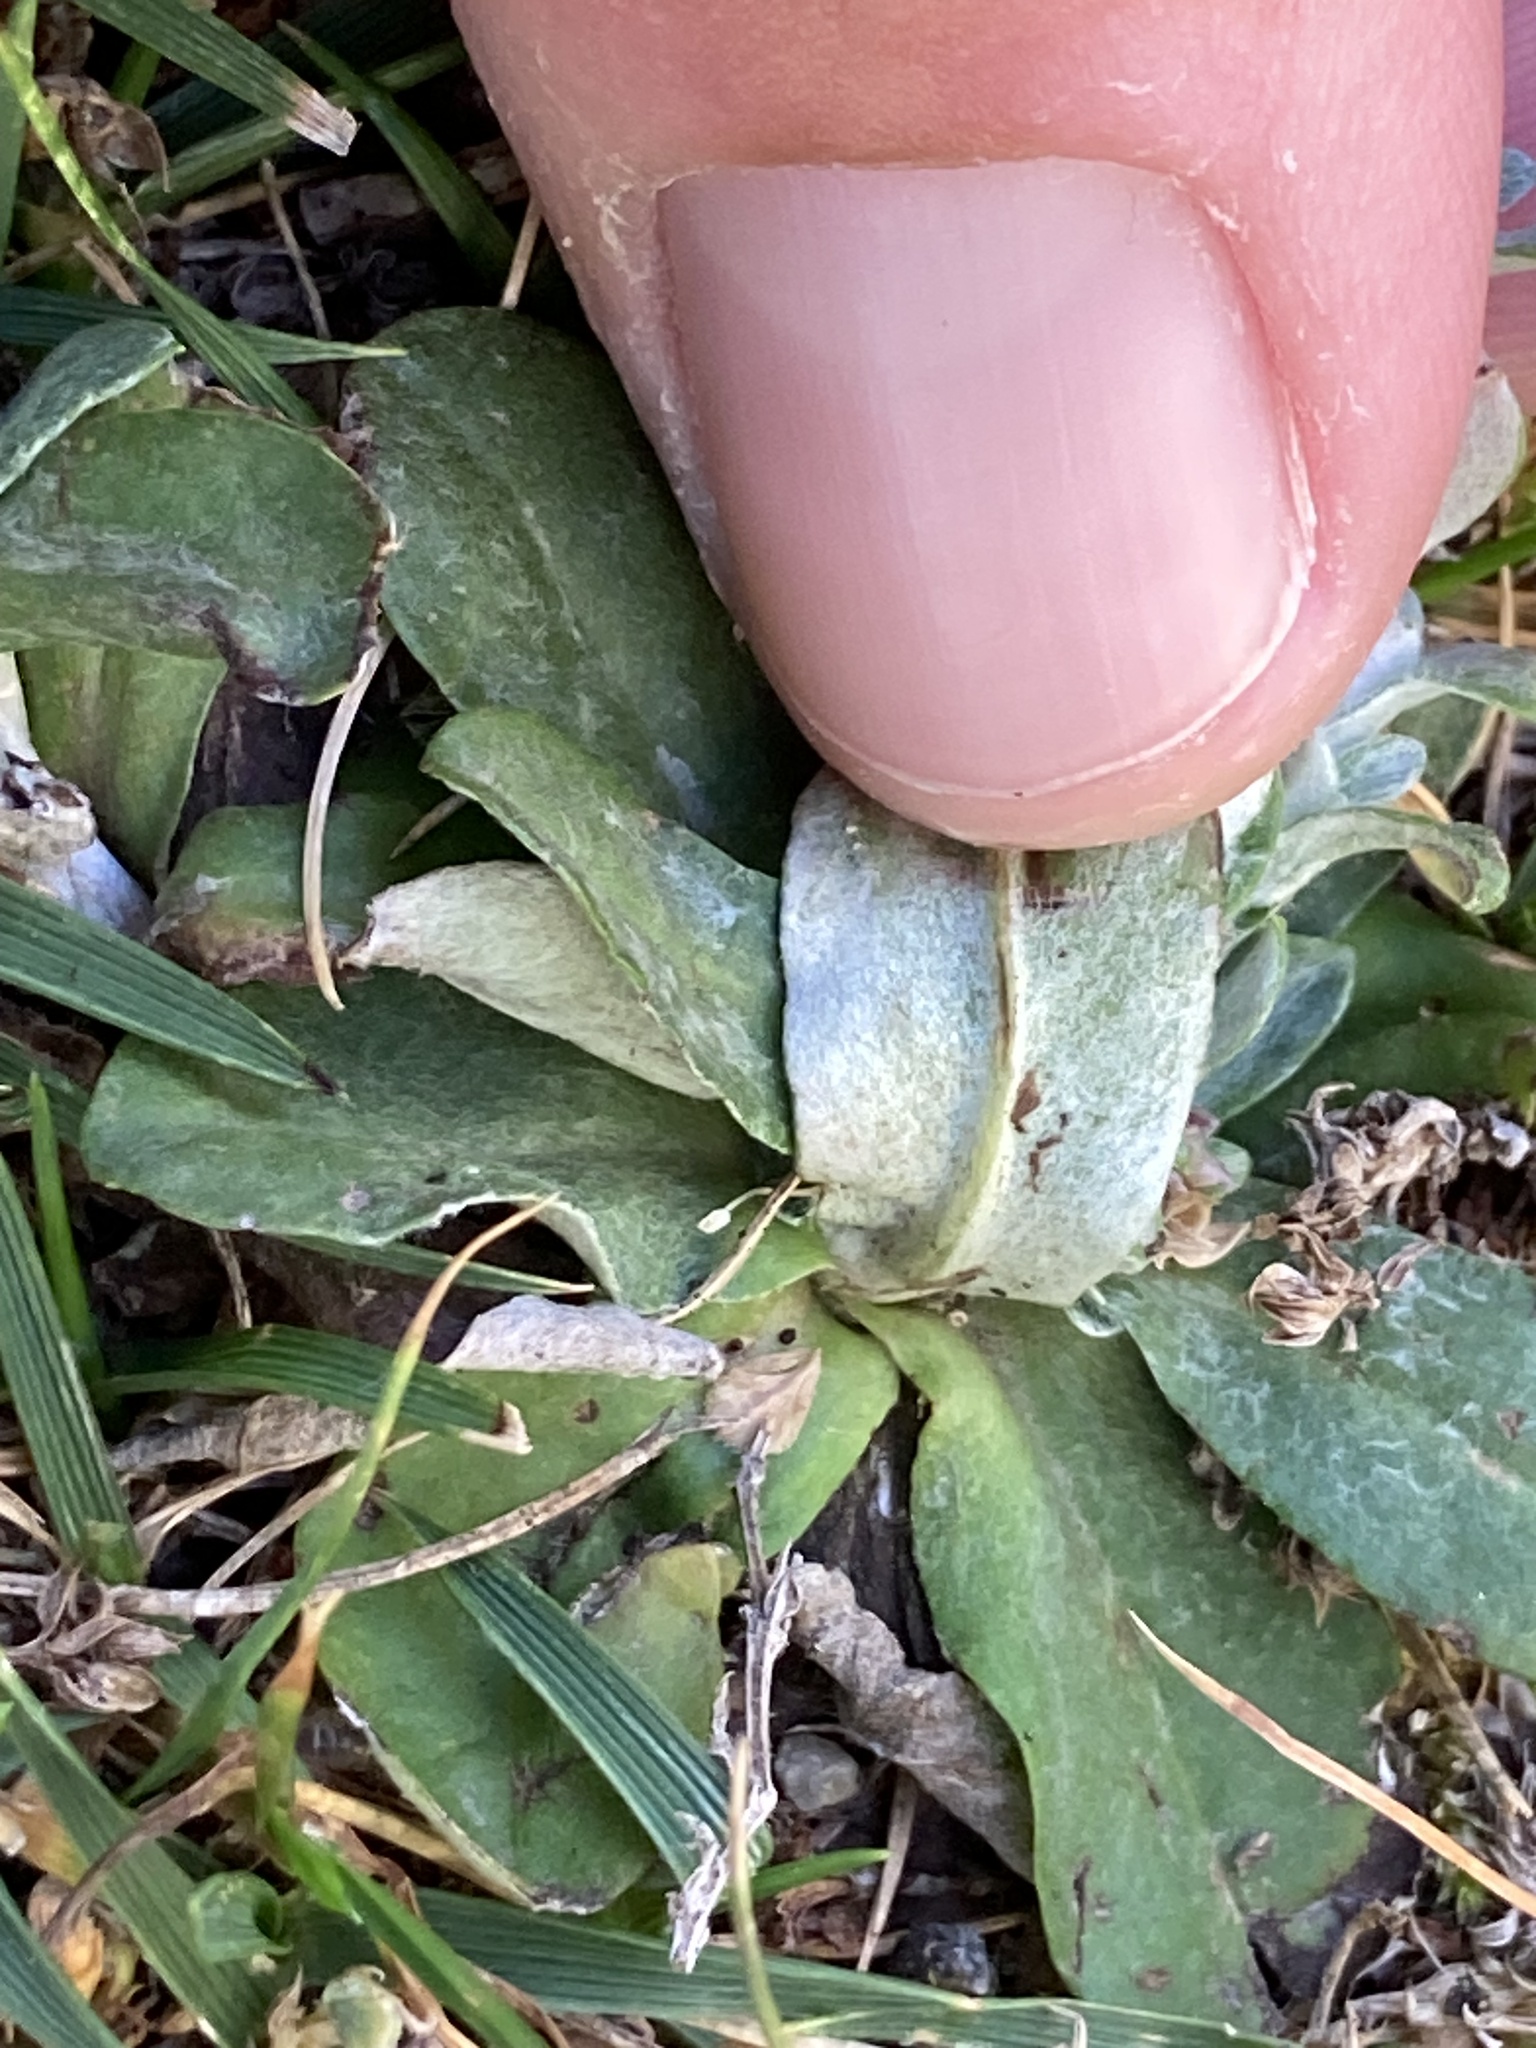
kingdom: Plantae
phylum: Tracheophyta
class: Magnoliopsida
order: Asterales
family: Asteraceae
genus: Gamochaeta
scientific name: Gamochaeta americana
